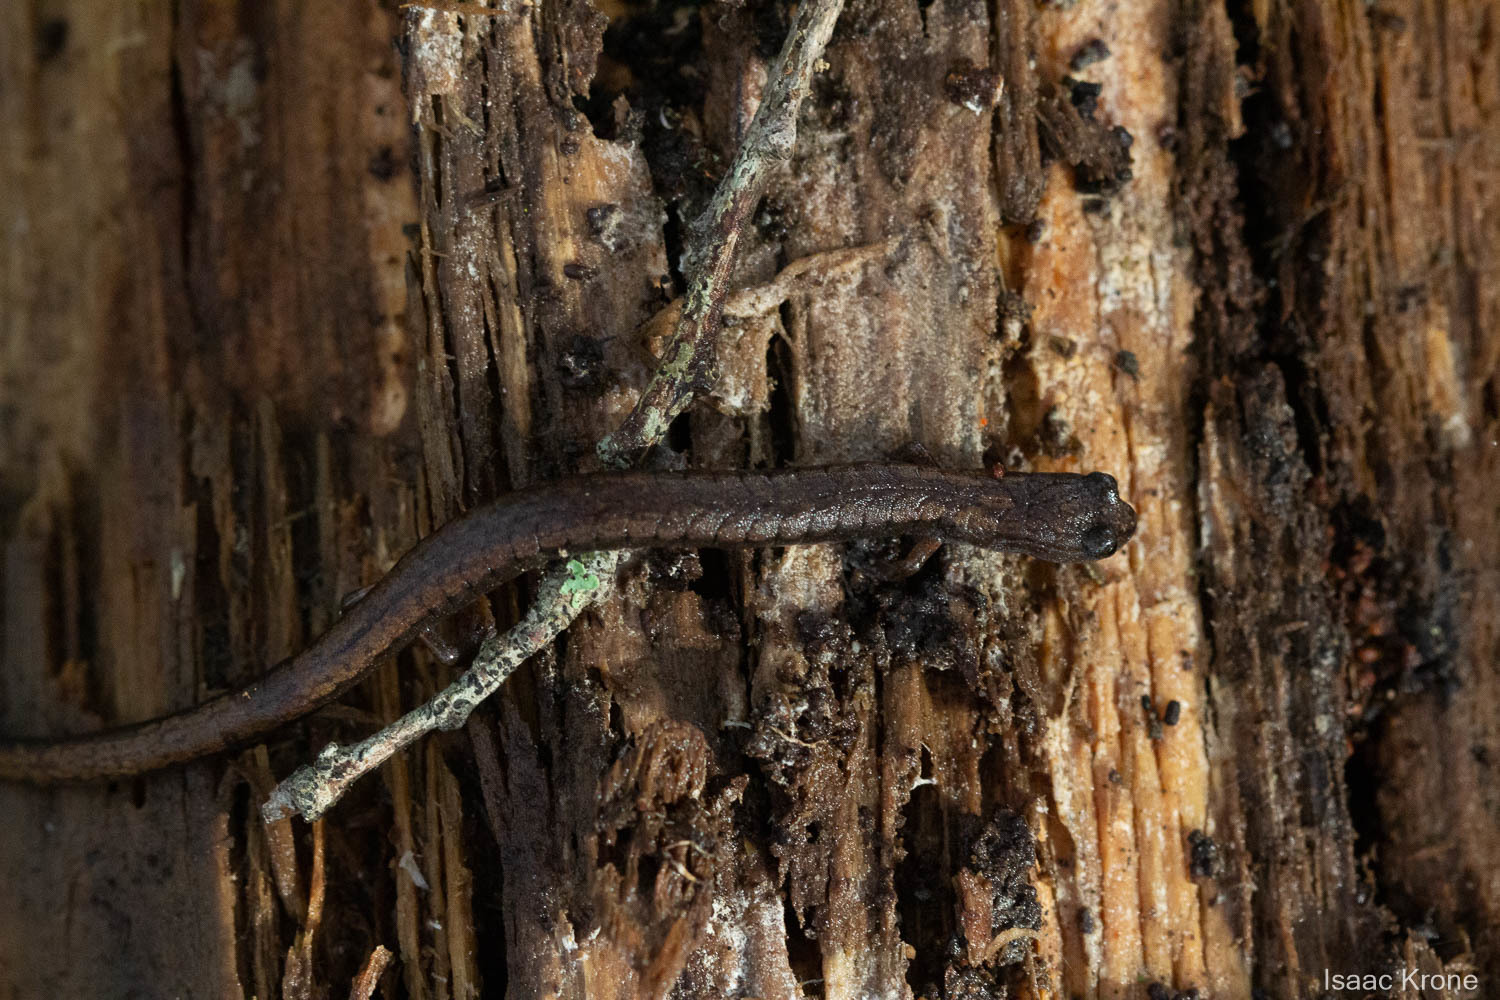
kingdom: Animalia
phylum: Chordata
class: Amphibia
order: Caudata
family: Plethodontidae
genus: Batrachoseps
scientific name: Batrachoseps attenuatus
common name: California slender salamander
